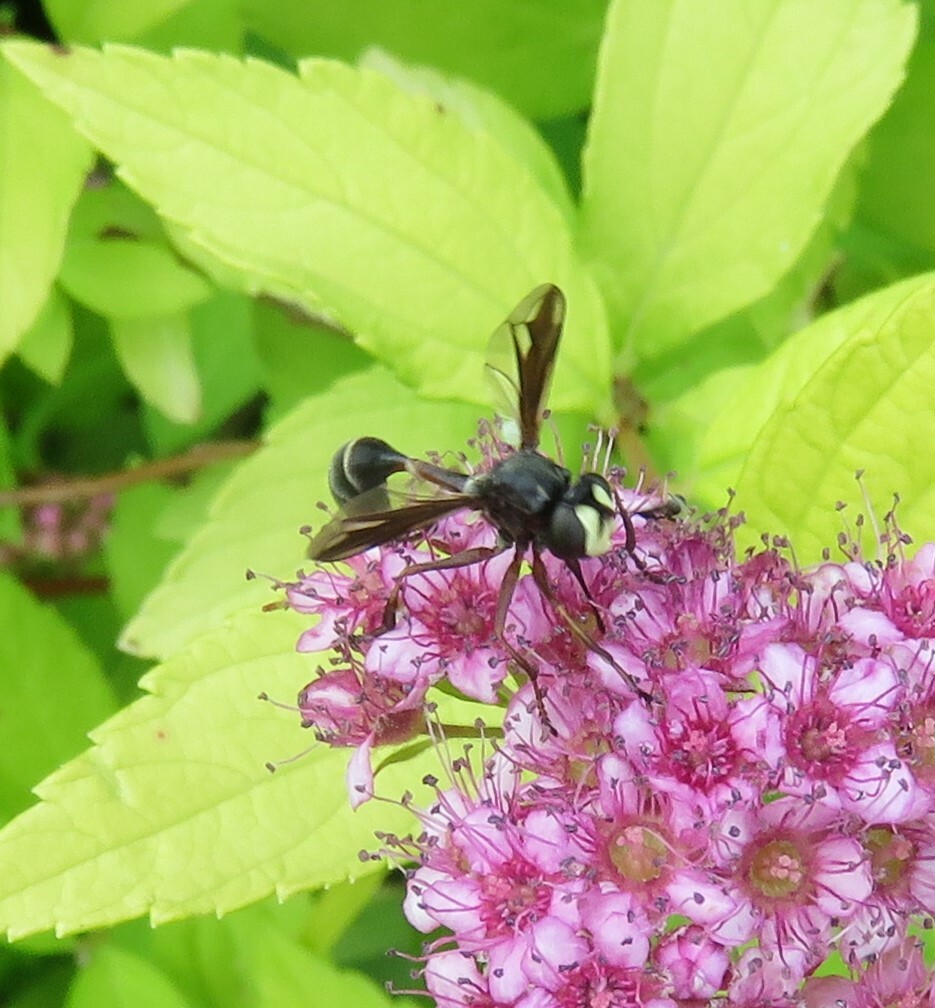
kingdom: Animalia
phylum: Arthropoda
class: Insecta
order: Diptera
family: Conopidae
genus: Physocephala
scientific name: Physocephala furcillata
